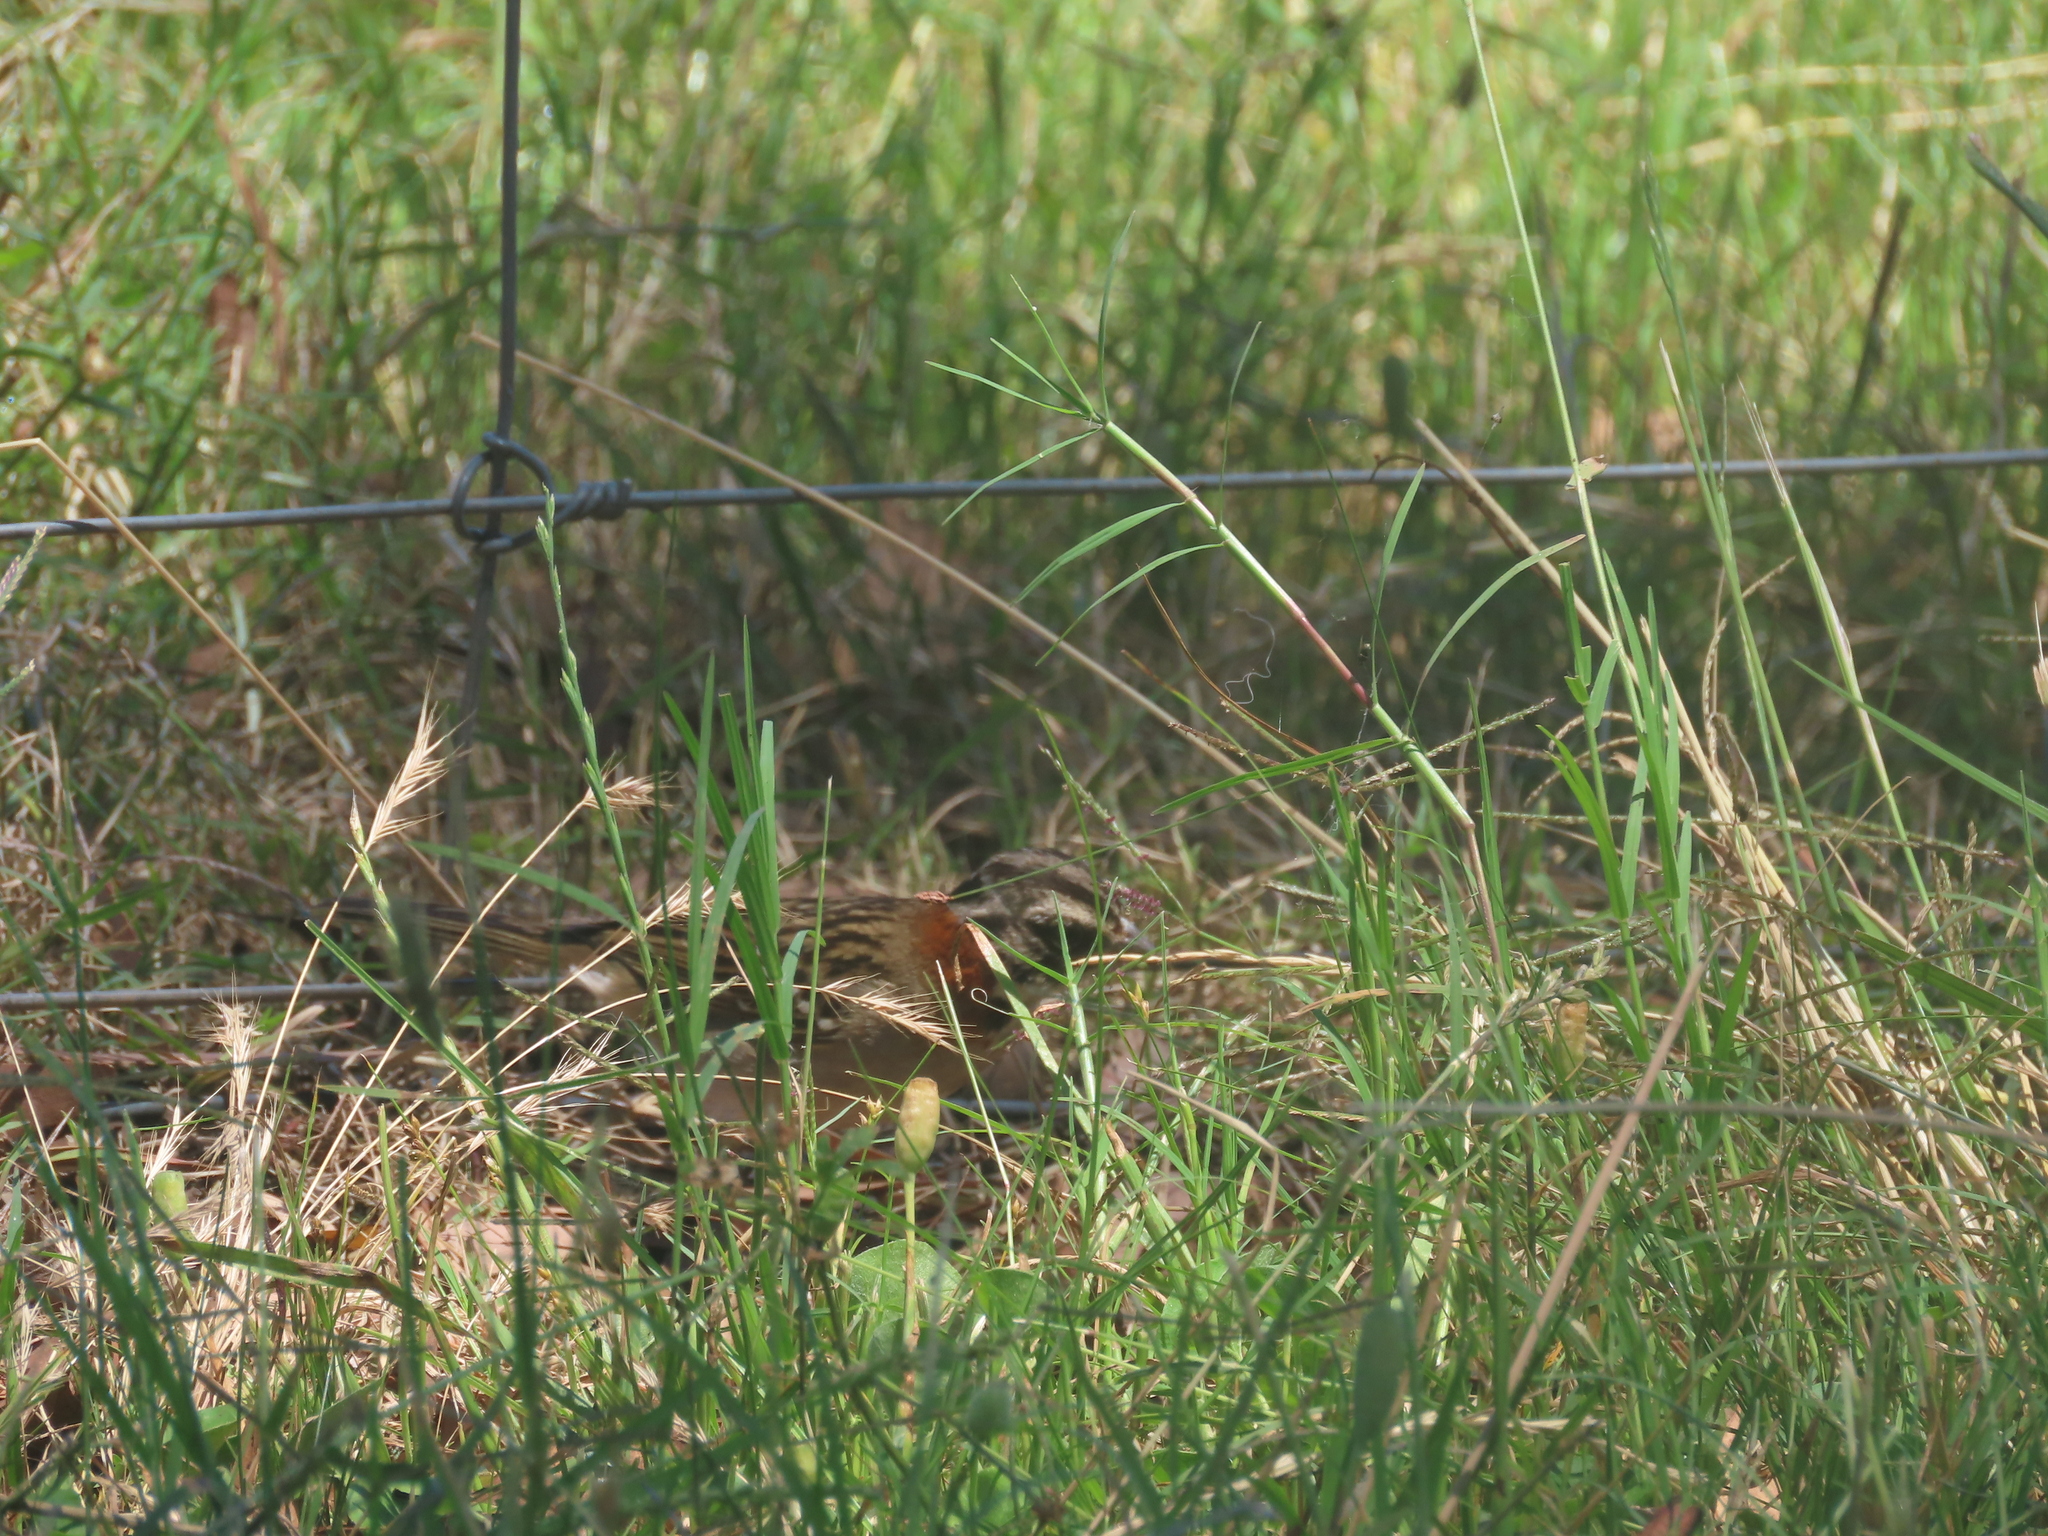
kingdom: Animalia
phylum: Chordata
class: Aves
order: Passeriformes
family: Passerellidae
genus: Zonotrichia
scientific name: Zonotrichia capensis
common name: Rufous-collared sparrow
